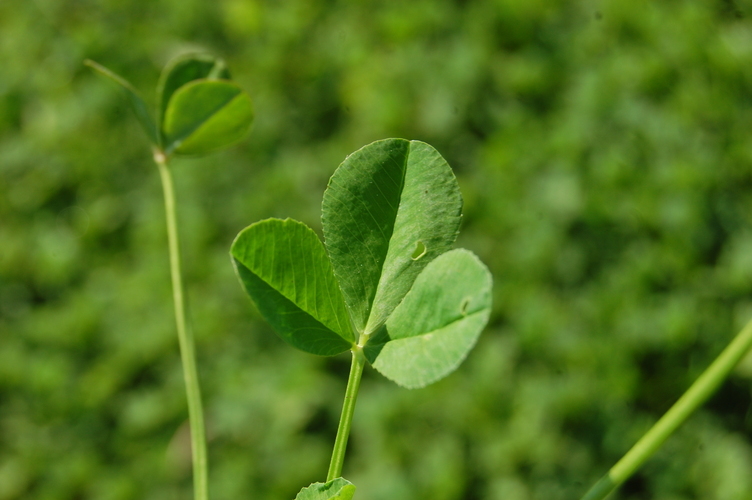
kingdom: Plantae
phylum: Tracheophyta
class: Magnoliopsida
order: Fabales
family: Fabaceae
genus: Trifolium
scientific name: Trifolium nigrescens
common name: Small white clover
